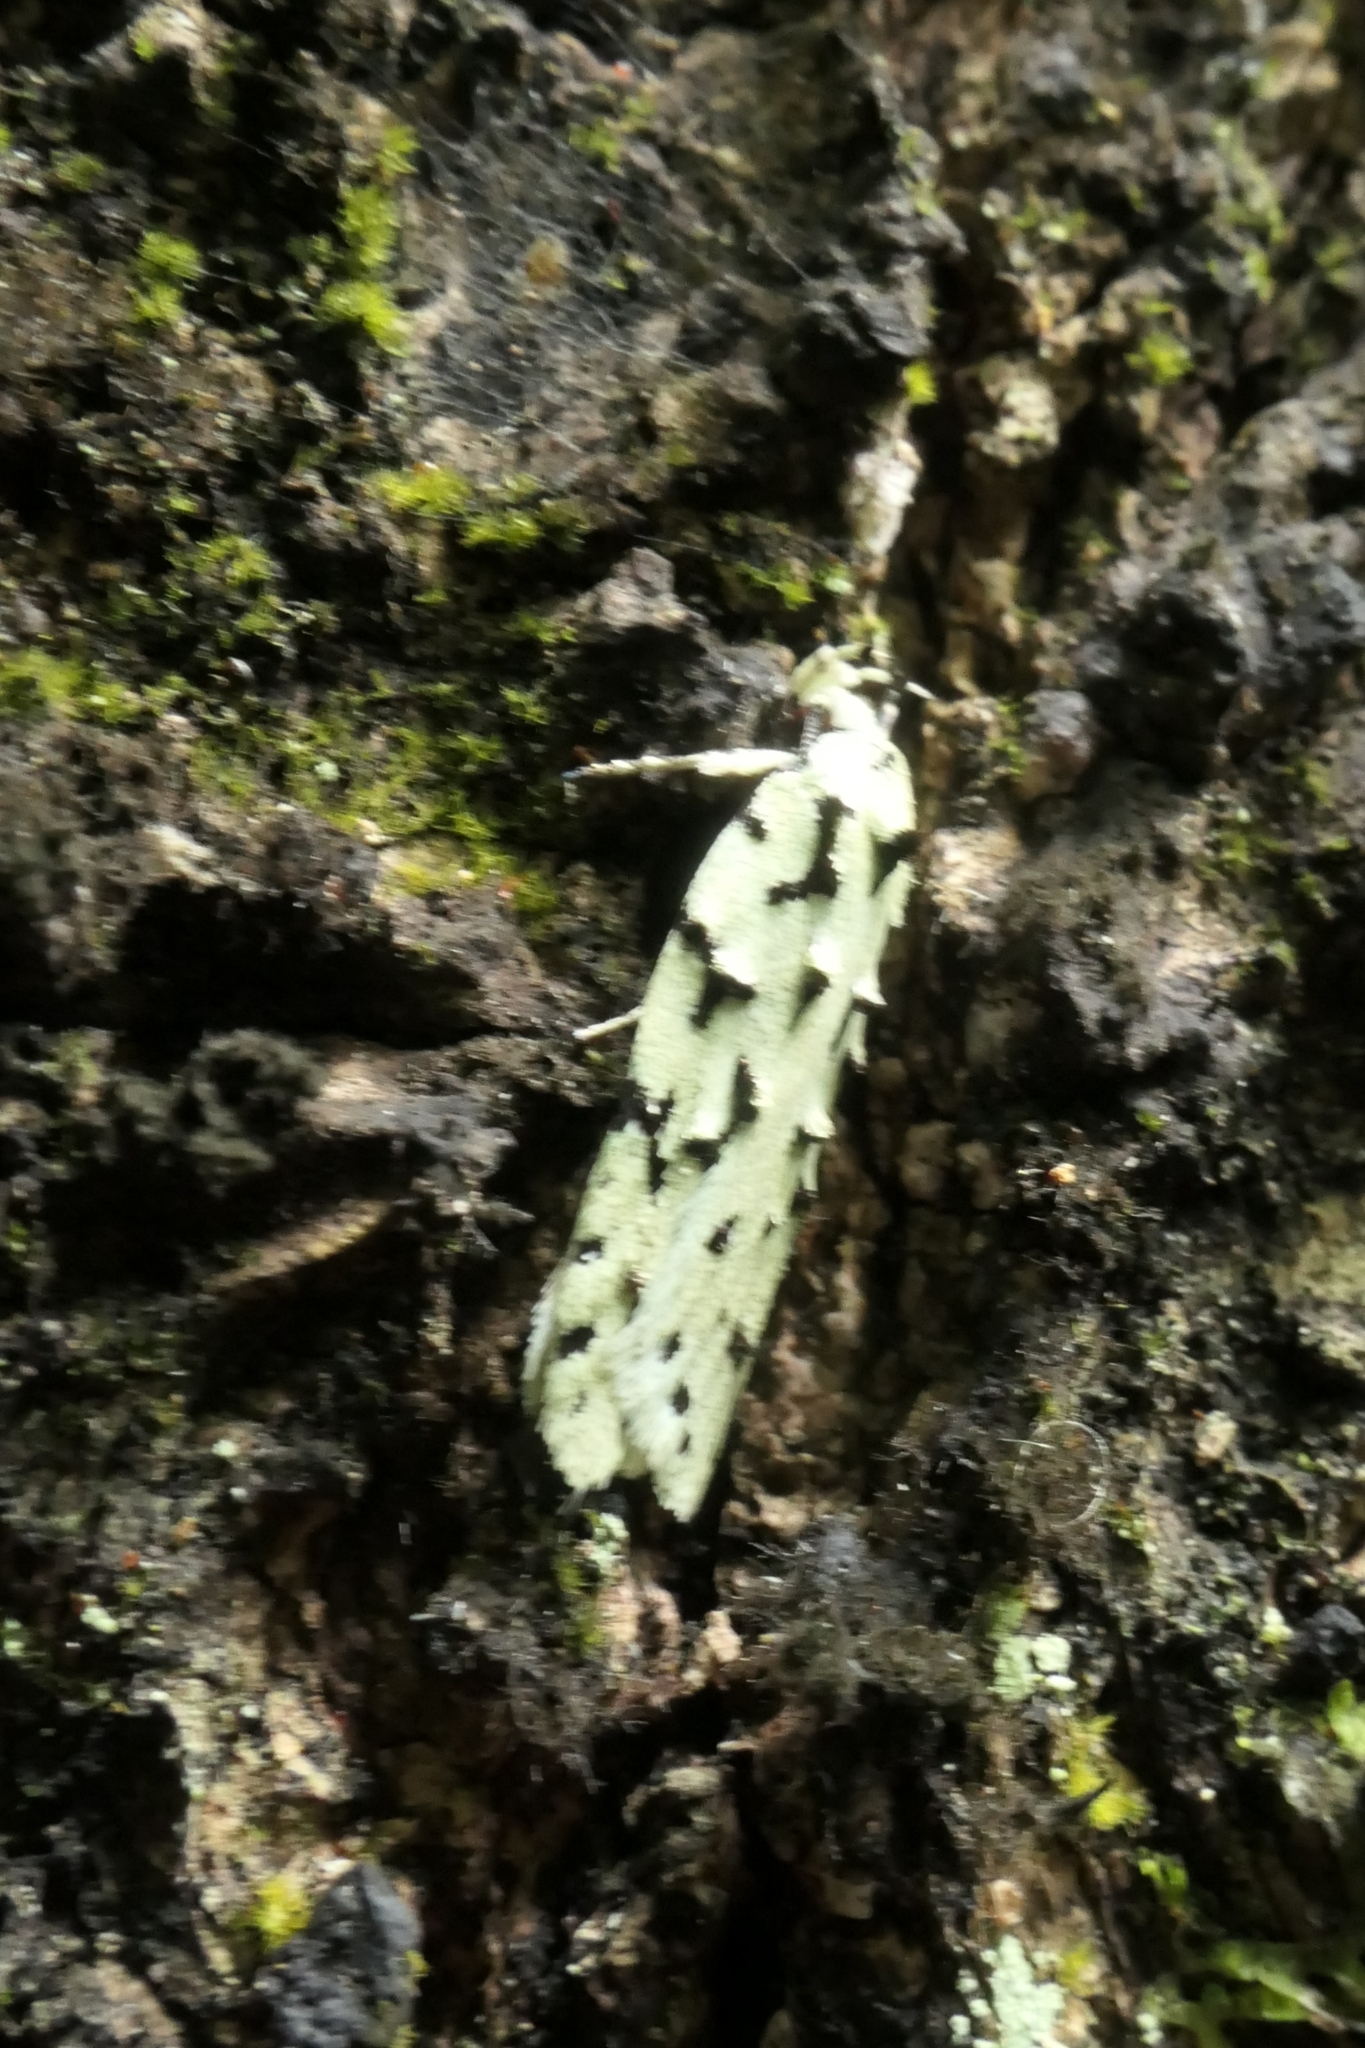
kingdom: Animalia
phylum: Arthropoda
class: Insecta
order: Lepidoptera
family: Oecophoridae
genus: Izatha
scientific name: Izatha huttoni
